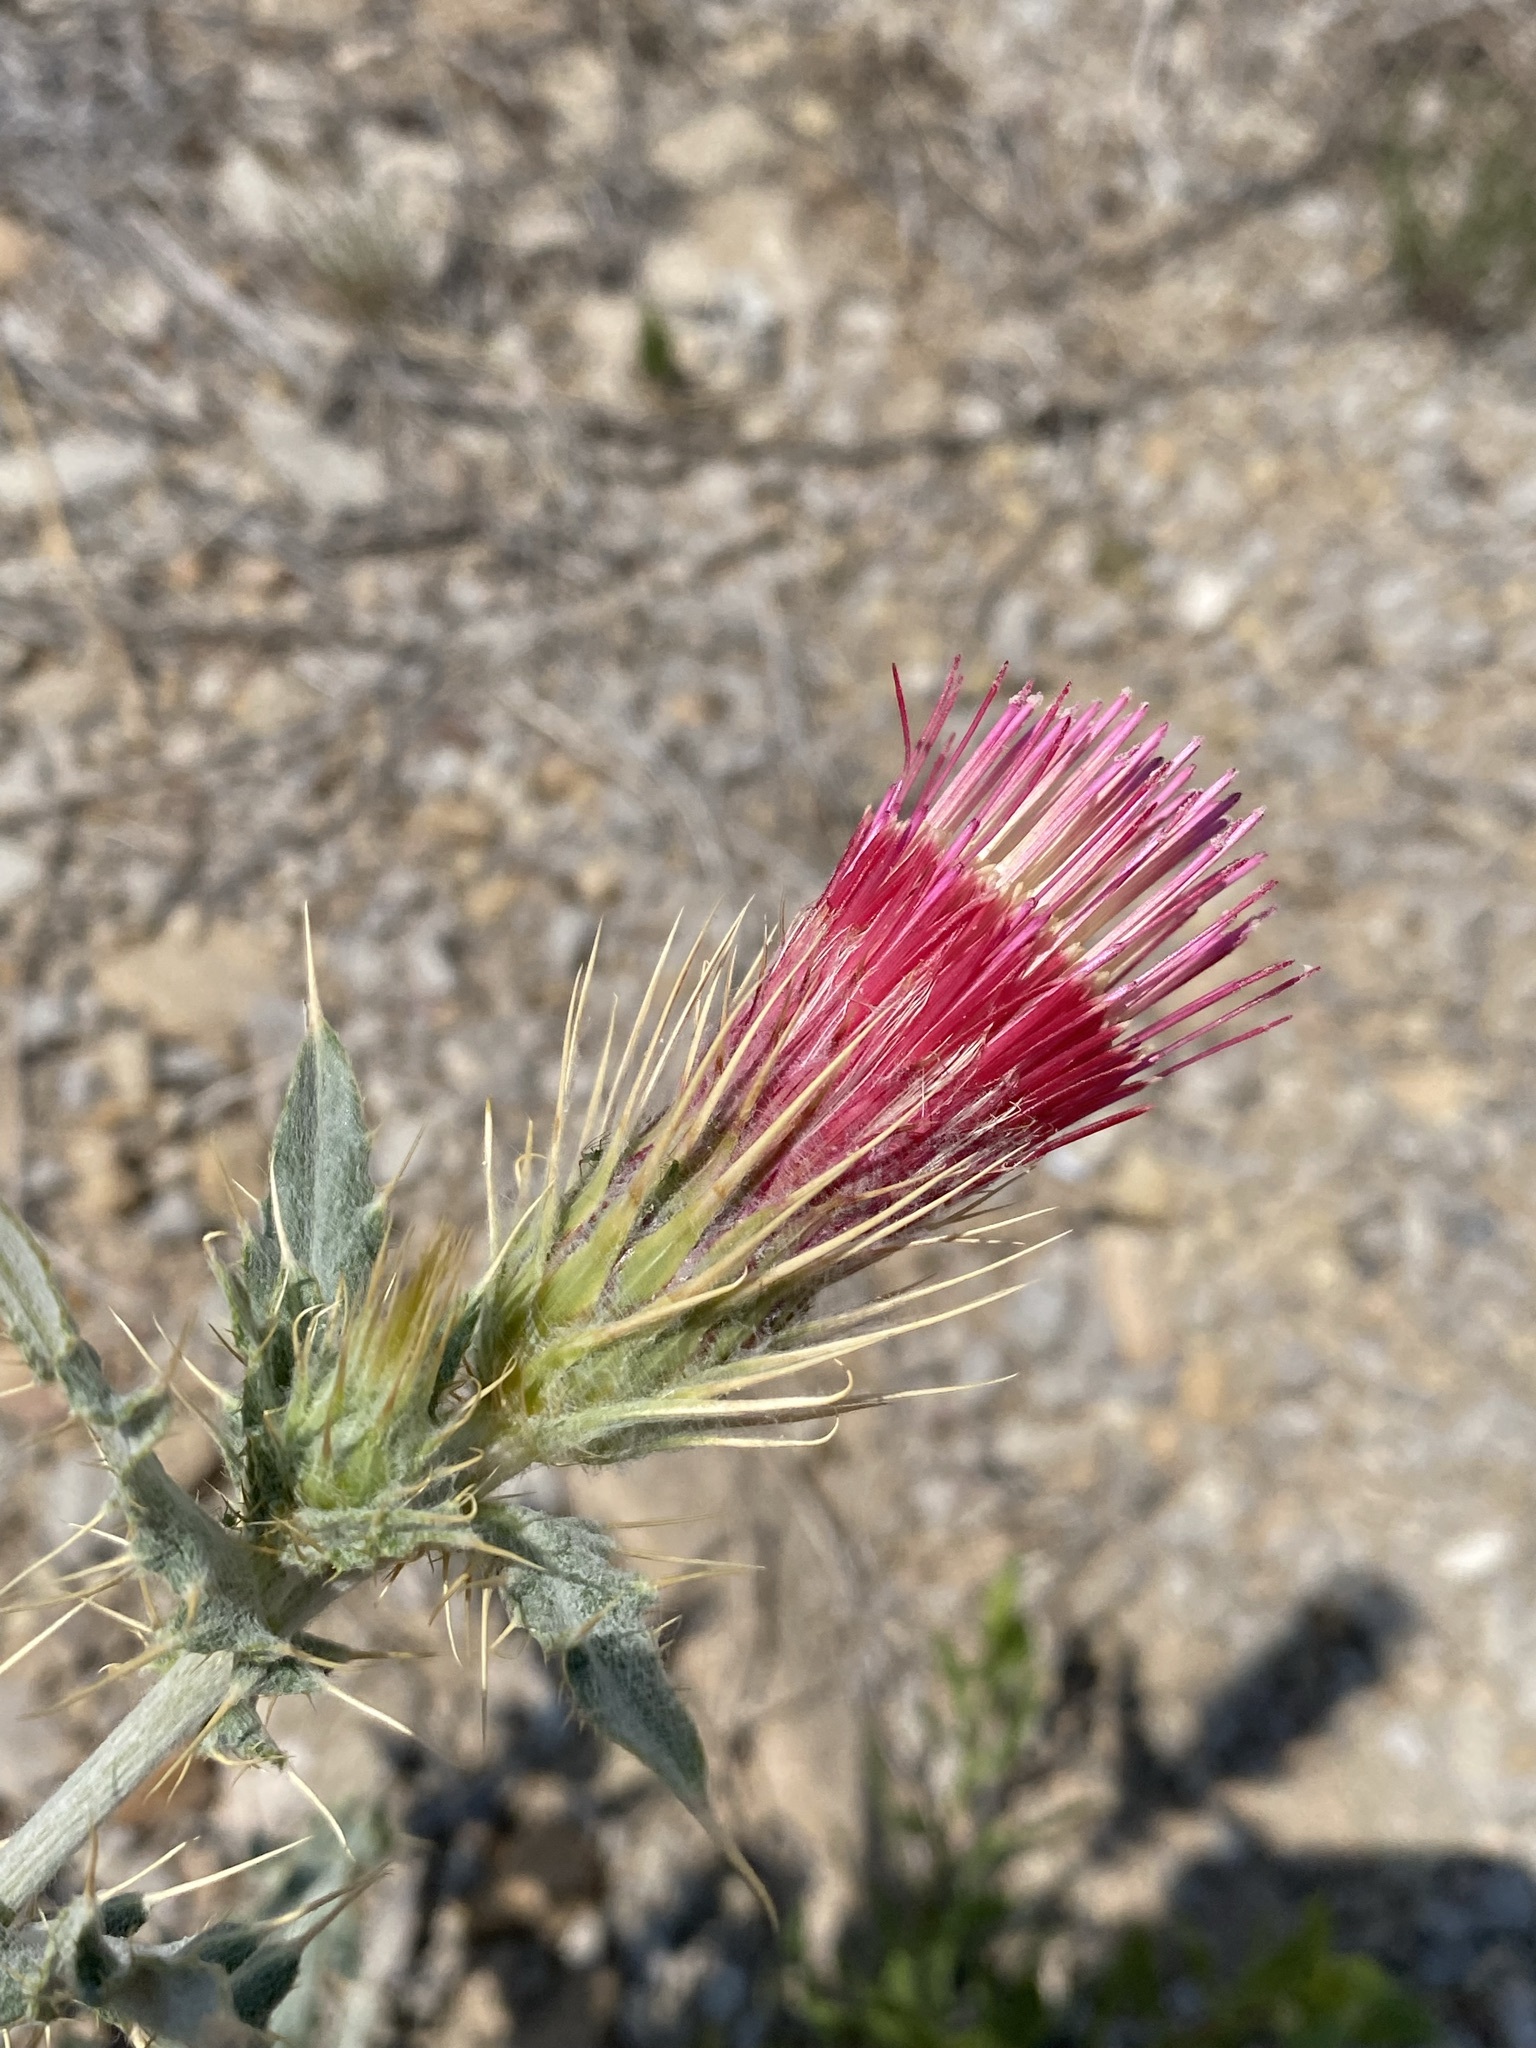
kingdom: Plantae
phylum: Tracheophyta
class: Magnoliopsida
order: Asterales
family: Asteraceae
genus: Cirsium
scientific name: Cirsium arizonicum
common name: Arizona thistle
